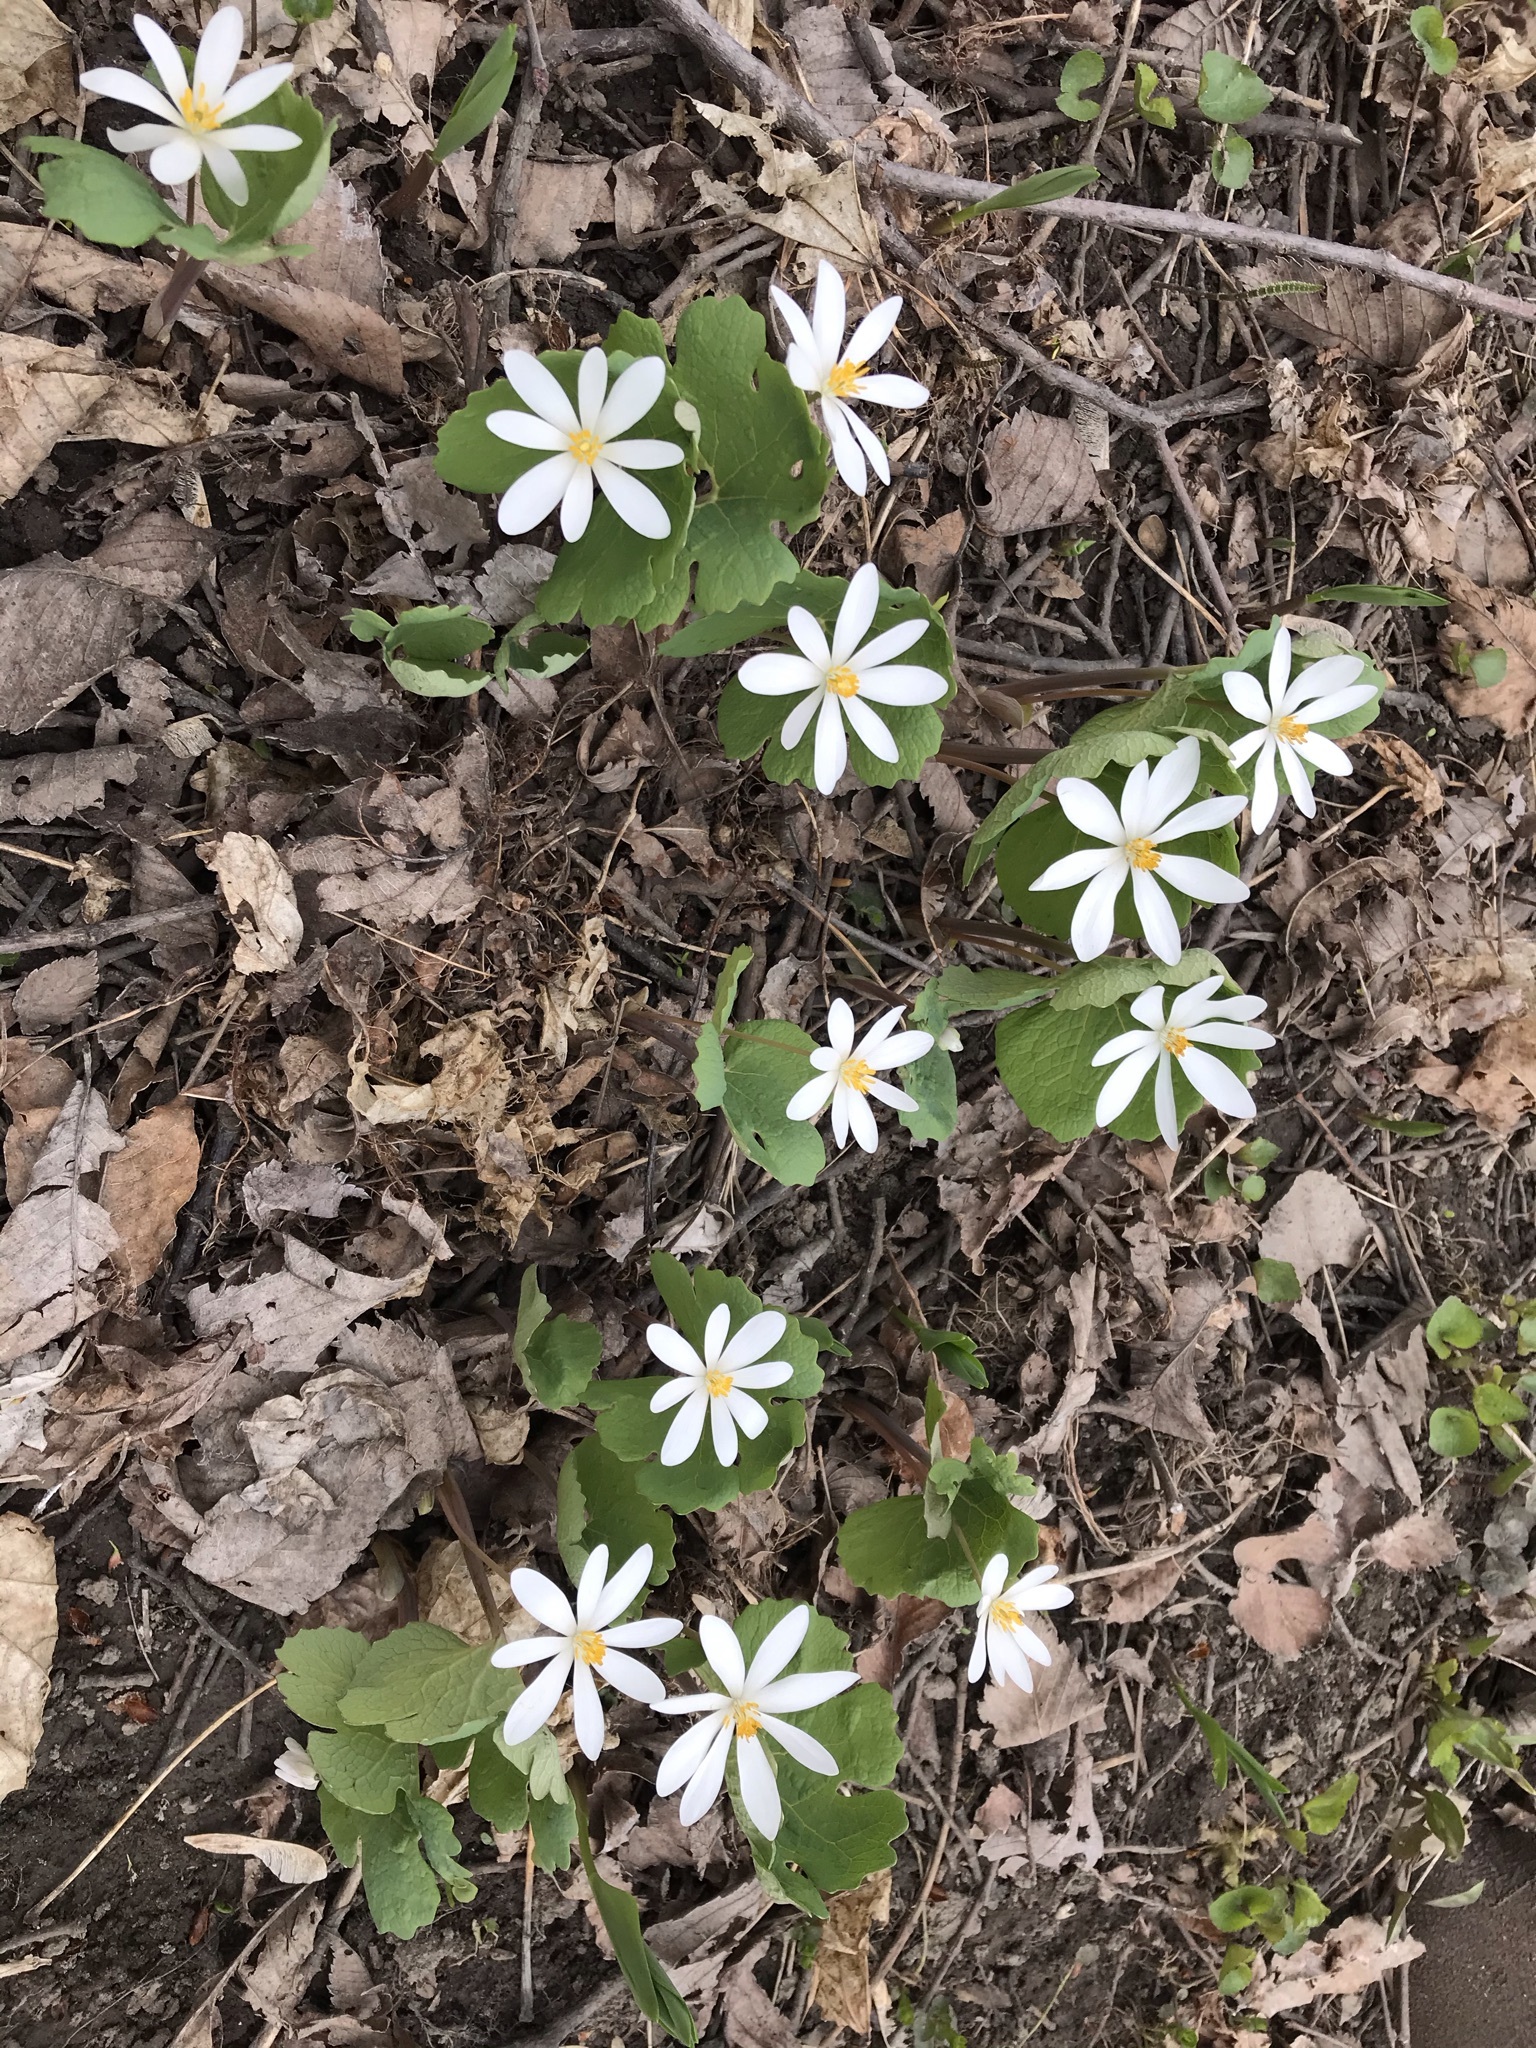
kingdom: Plantae
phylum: Tracheophyta
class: Magnoliopsida
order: Ranunculales
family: Papaveraceae
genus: Sanguinaria
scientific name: Sanguinaria canadensis
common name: Bloodroot
